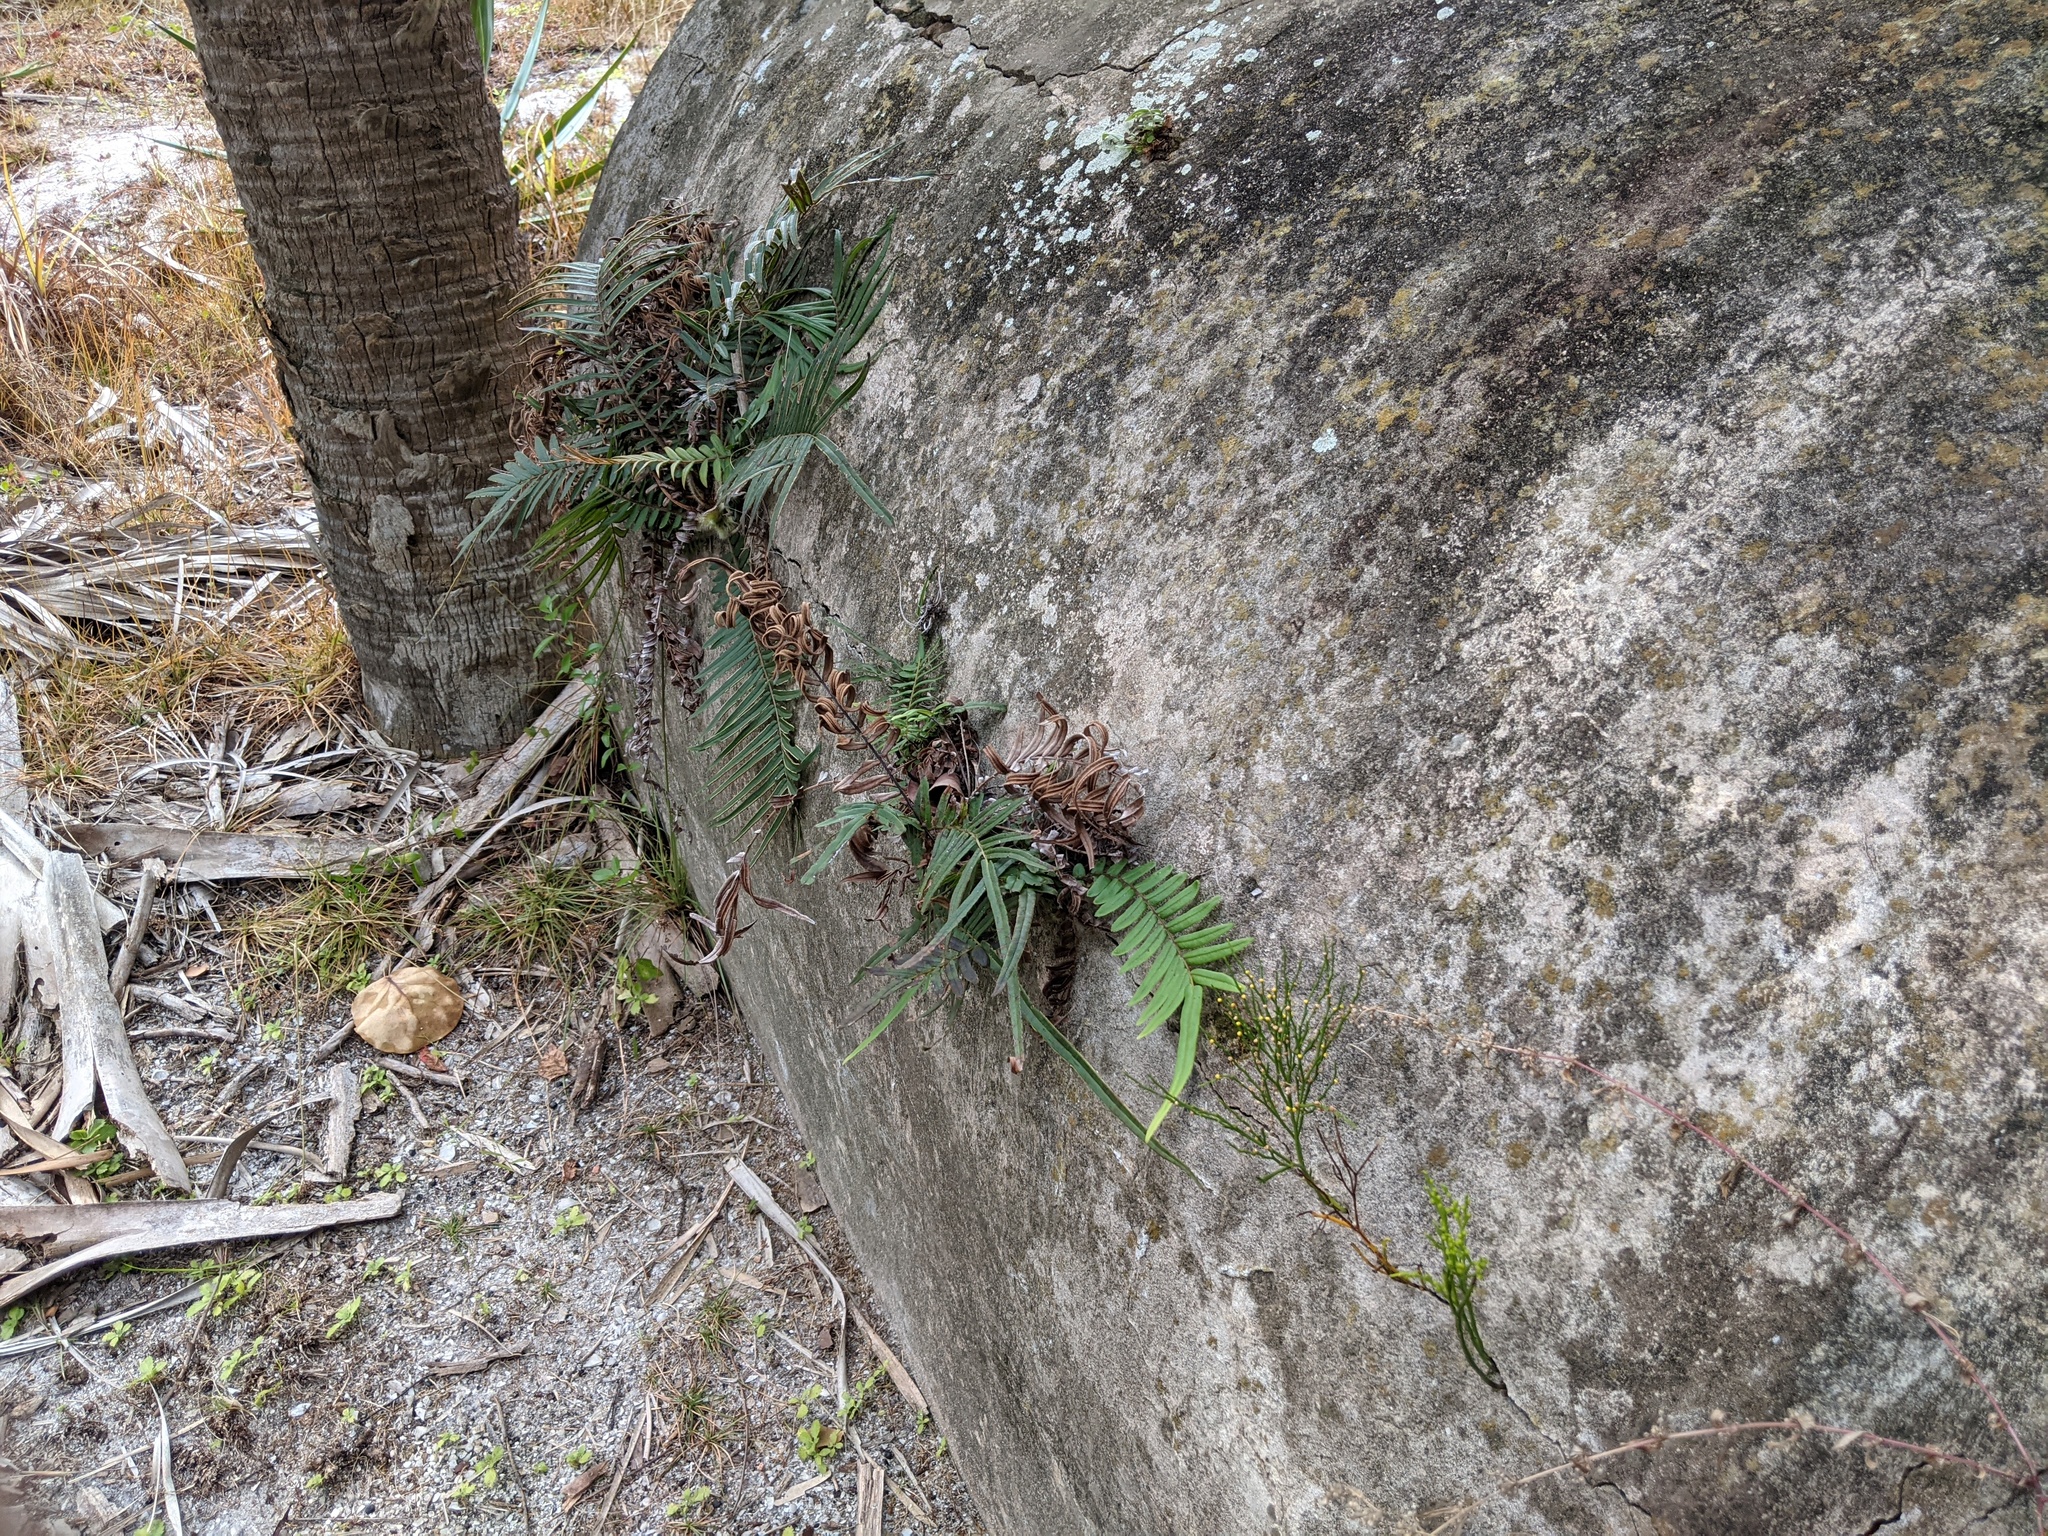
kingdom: Plantae
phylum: Tracheophyta
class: Polypodiopsida
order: Psilotales
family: Psilotaceae
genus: Psilotum
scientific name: Psilotum nudum
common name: Skeleton fork fern
